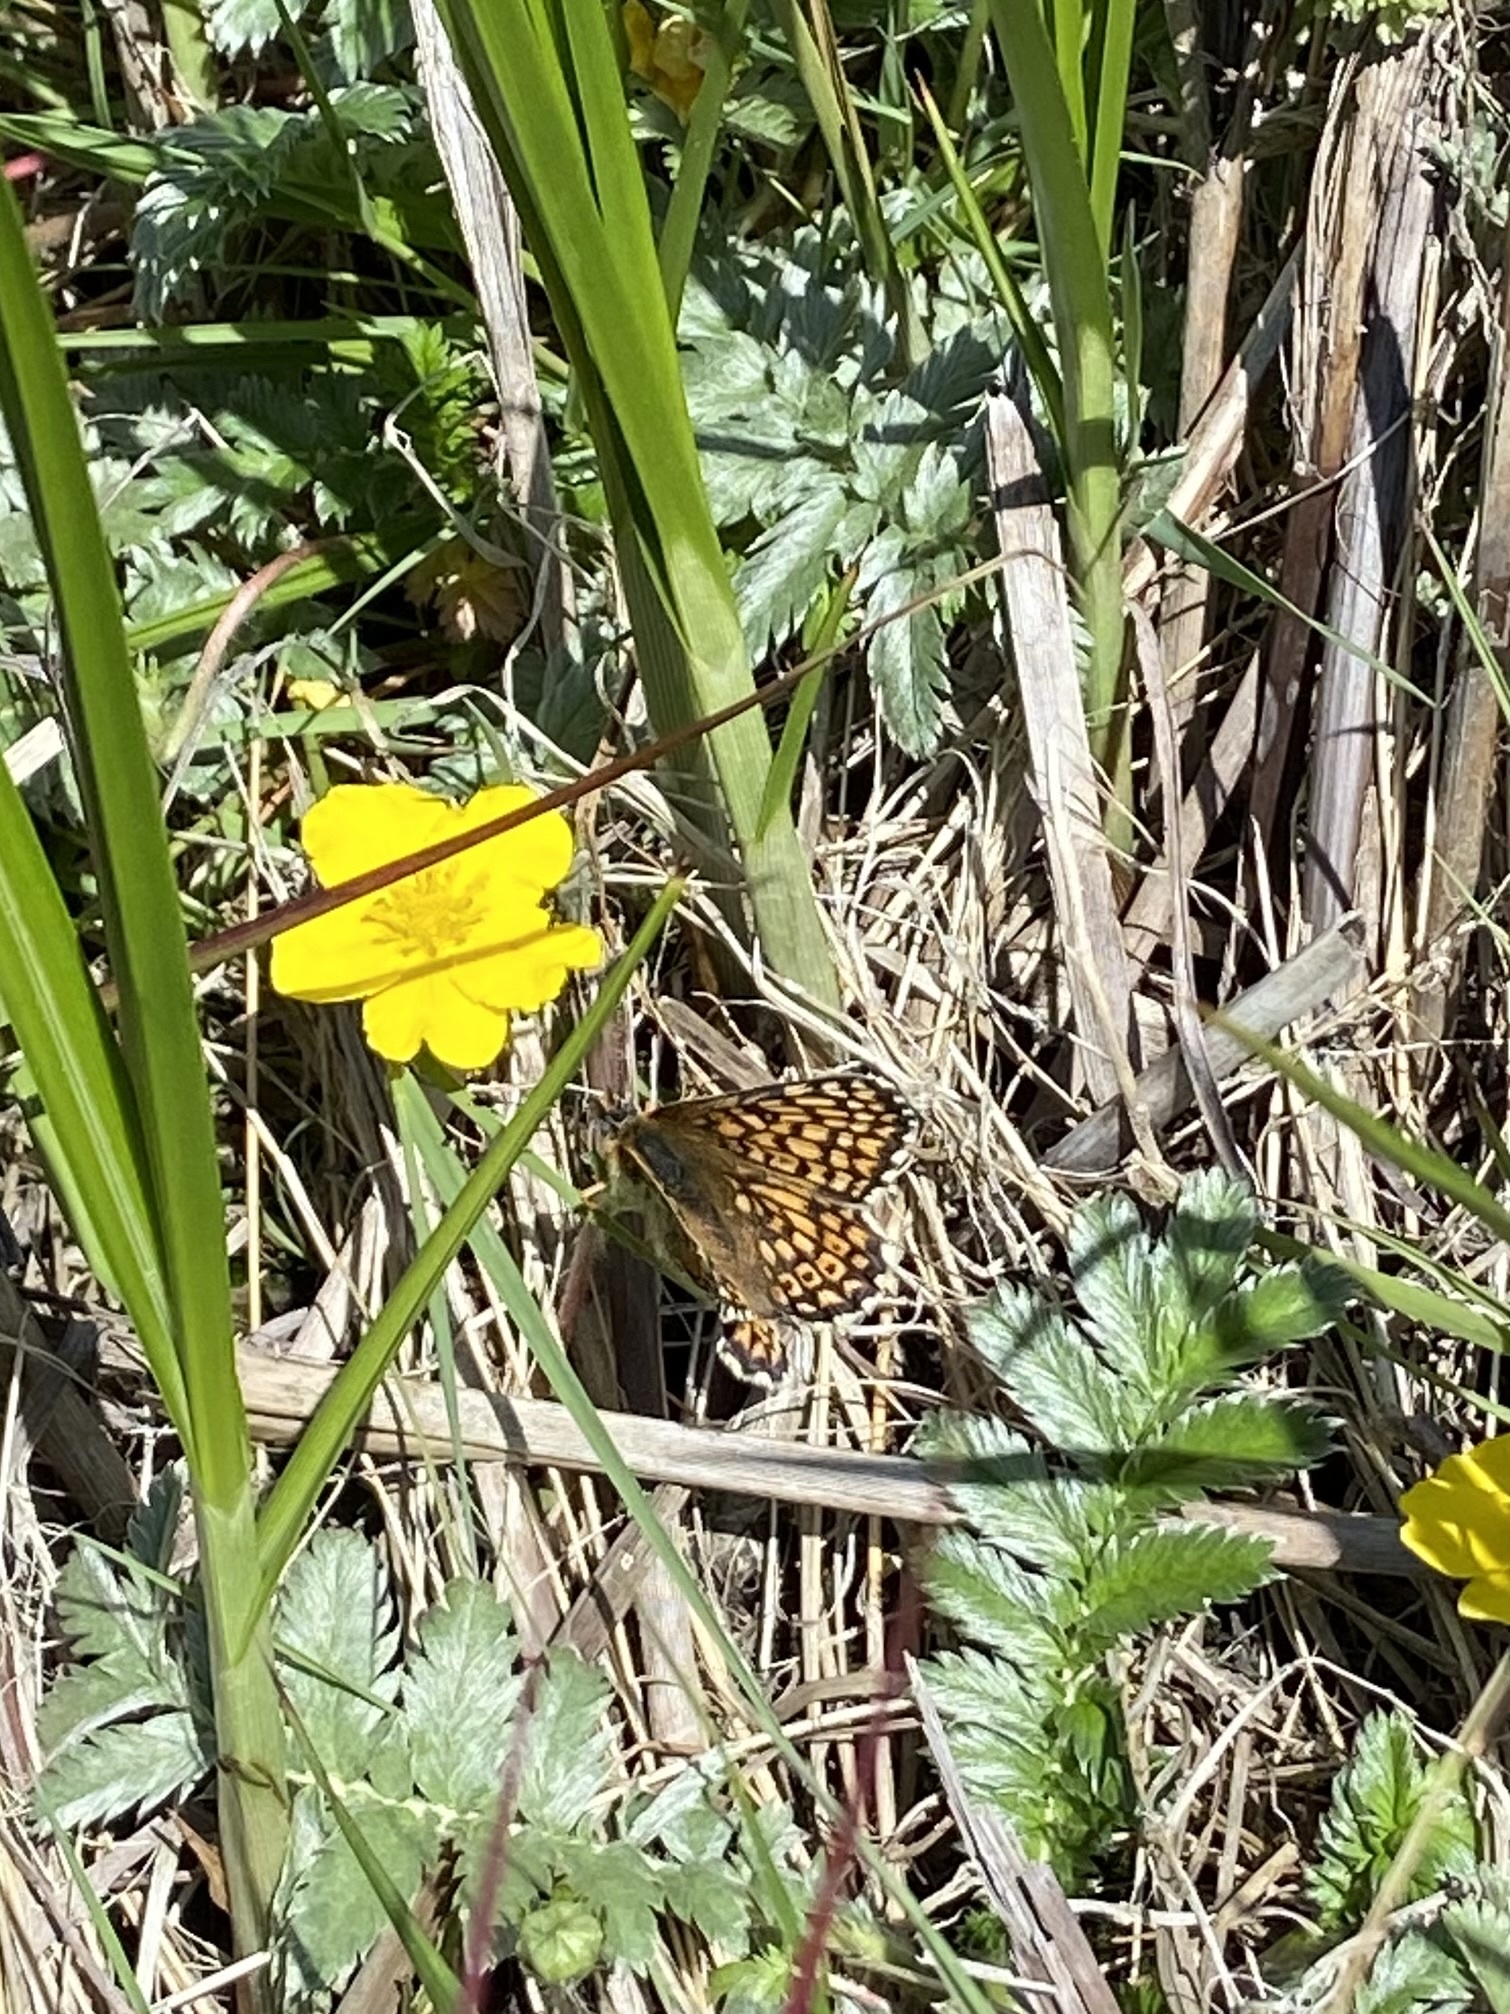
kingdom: Animalia
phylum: Arthropoda
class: Insecta
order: Lepidoptera
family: Nymphalidae
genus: Melitaea
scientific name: Melitaea cinxia
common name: Glanville fritillary
